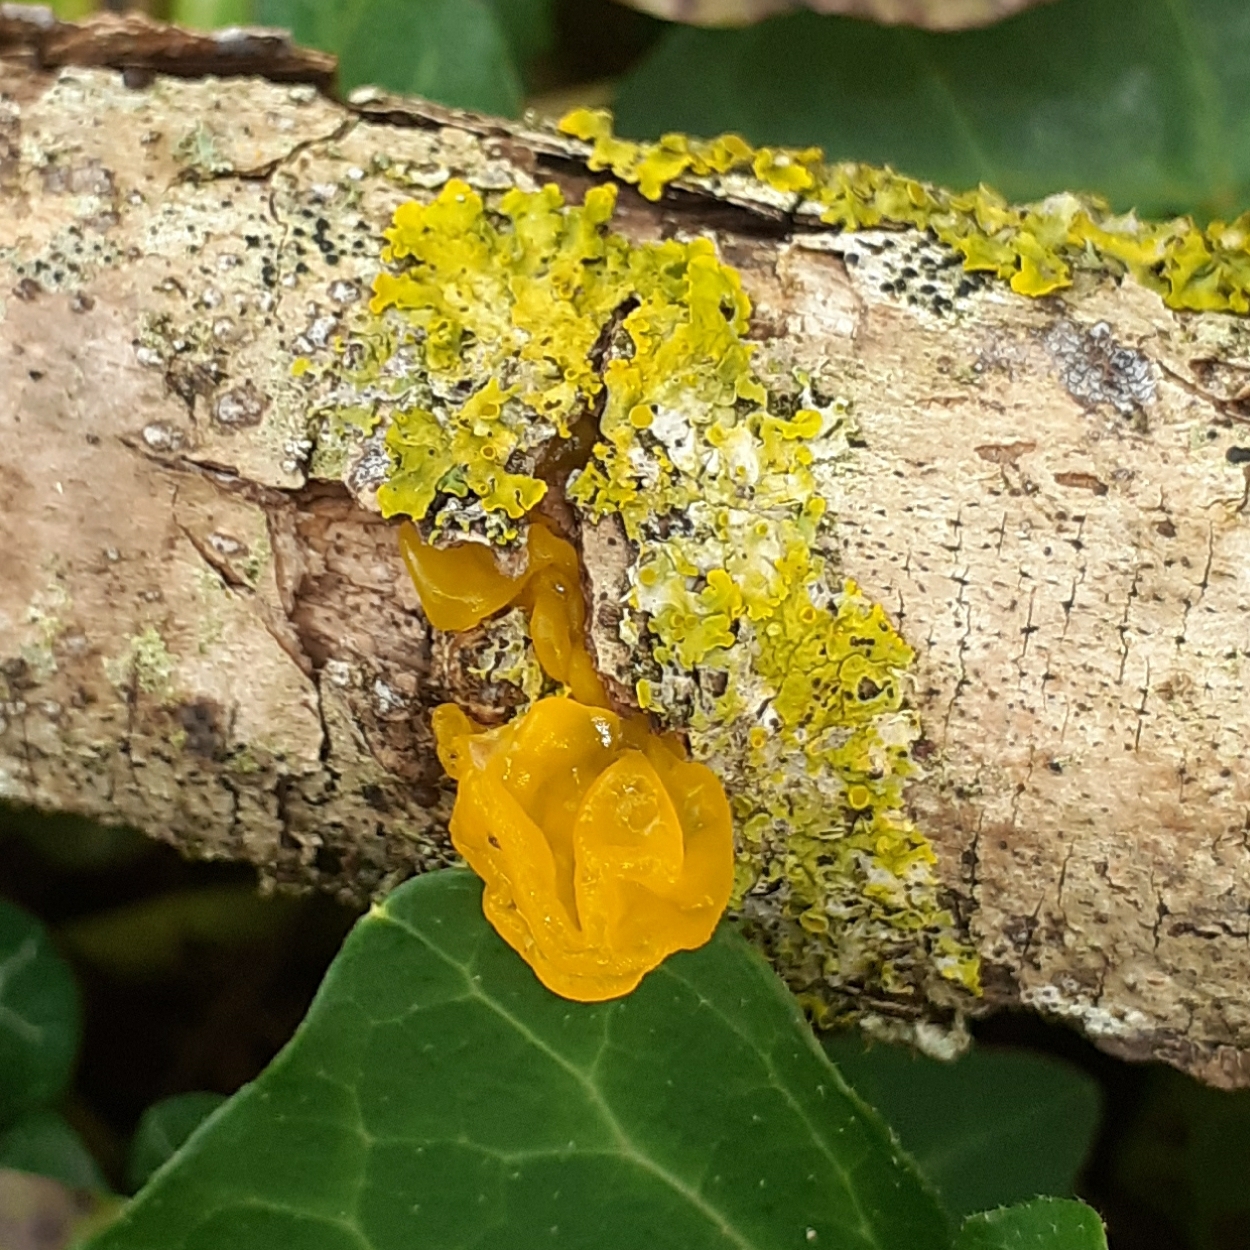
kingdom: Fungi
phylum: Basidiomycota
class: Tremellomycetes
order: Tremellales
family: Tremellaceae
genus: Tremella
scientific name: Tremella mesenterica
